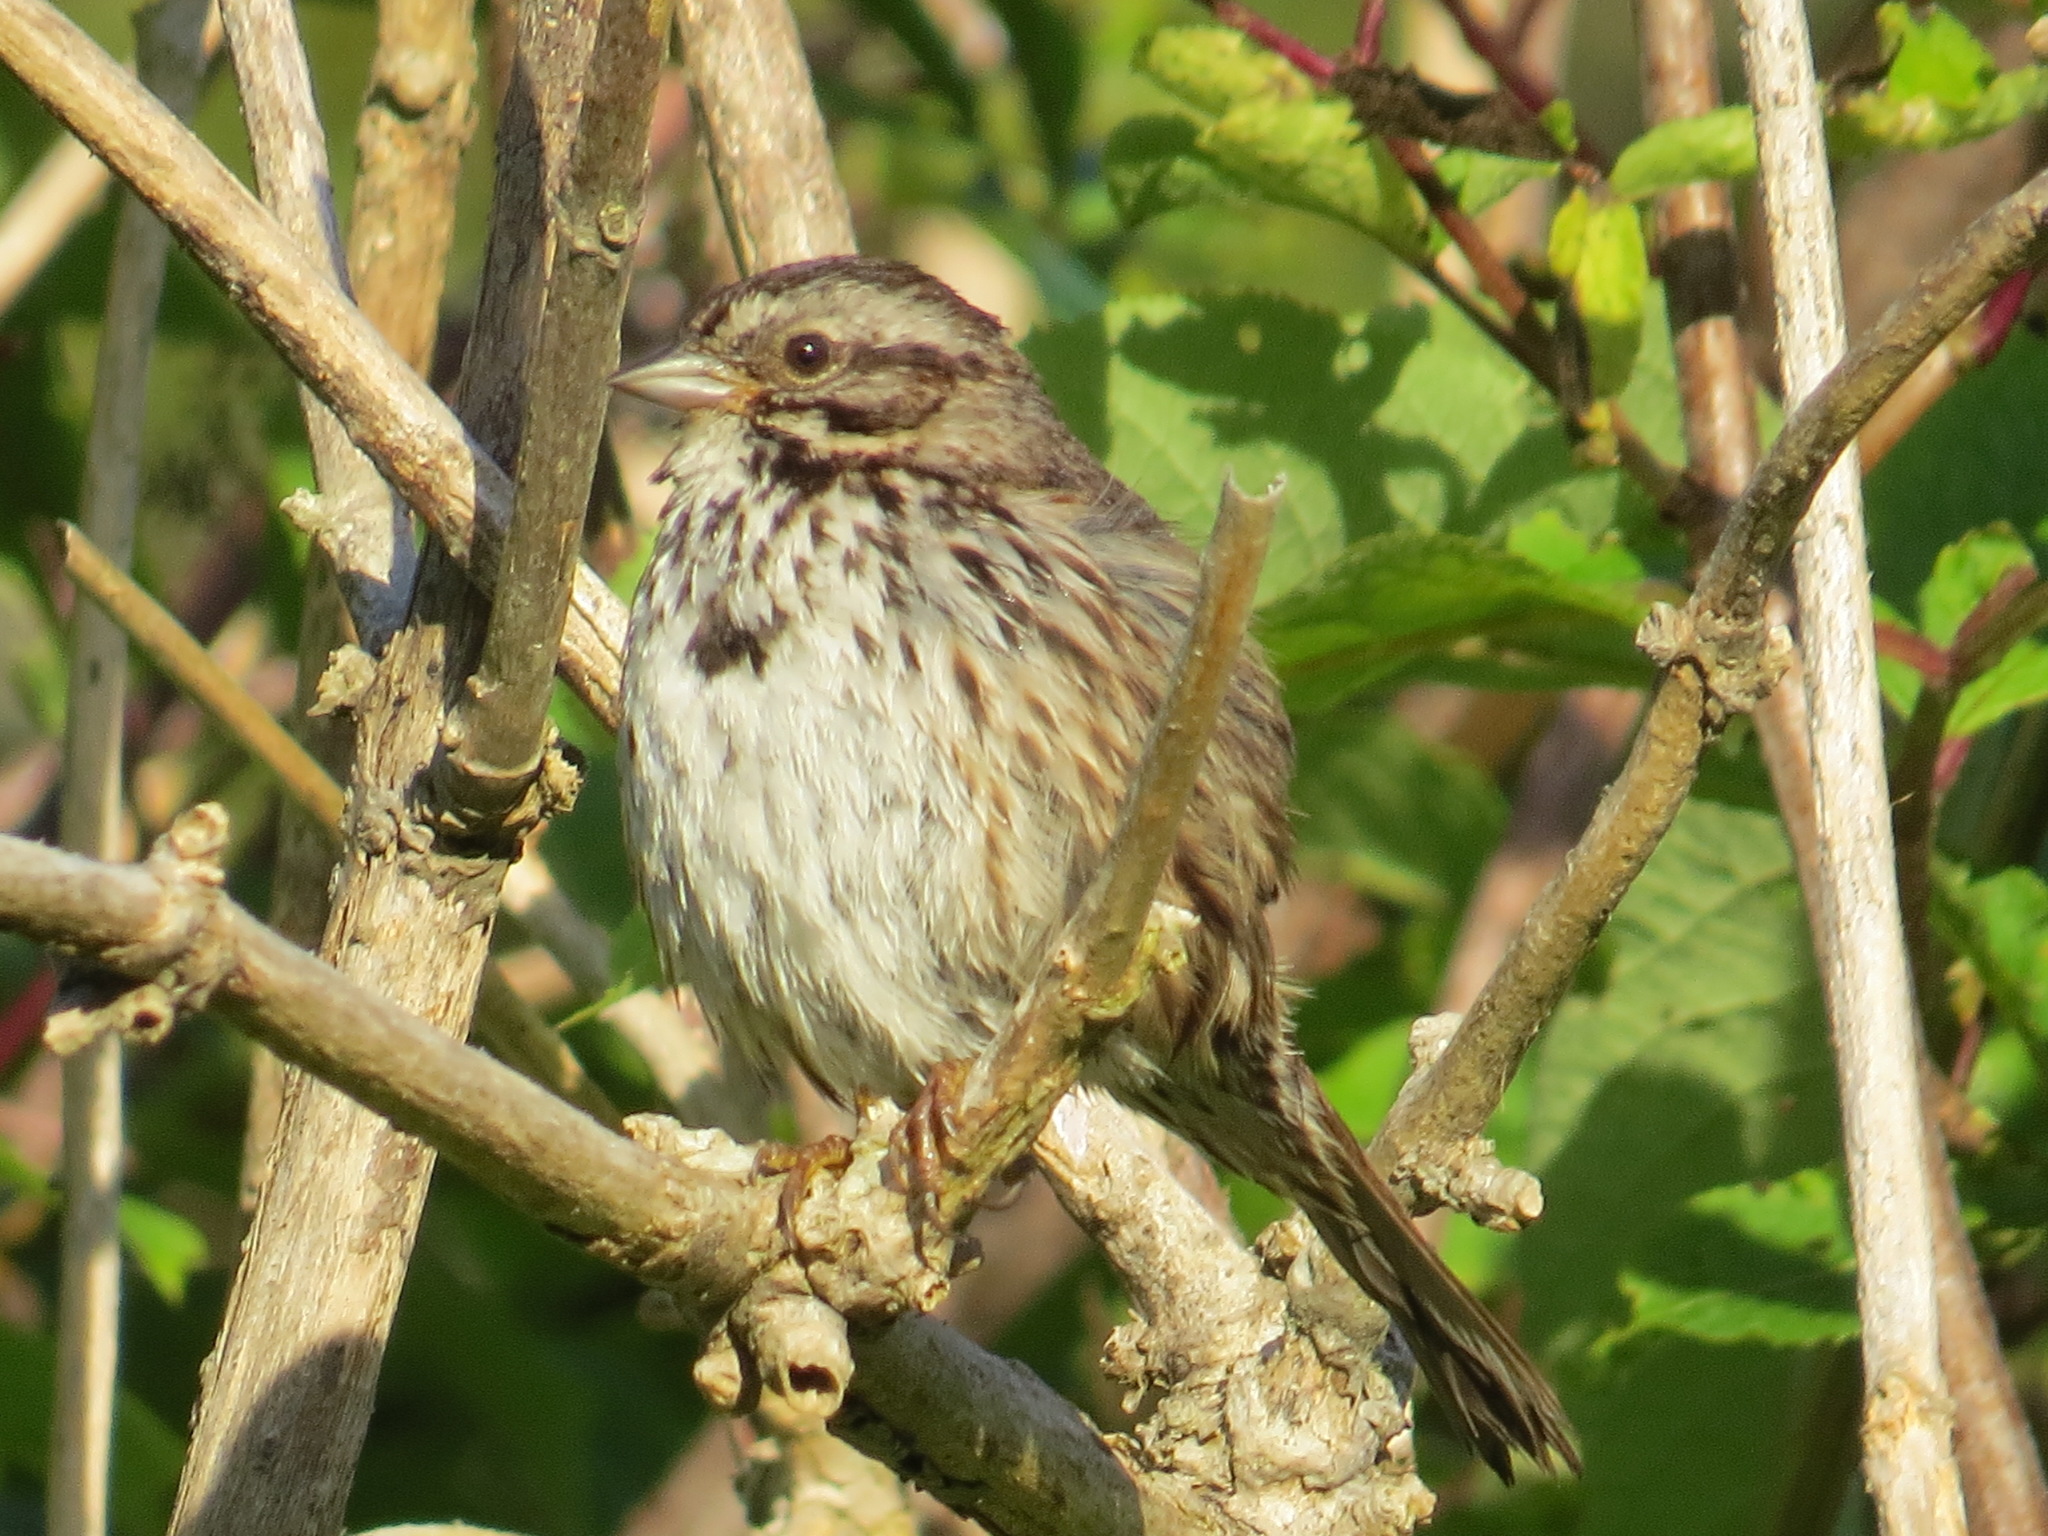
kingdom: Animalia
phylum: Chordata
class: Aves
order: Passeriformes
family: Passerellidae
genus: Melospiza
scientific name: Melospiza melodia
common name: Song sparrow
